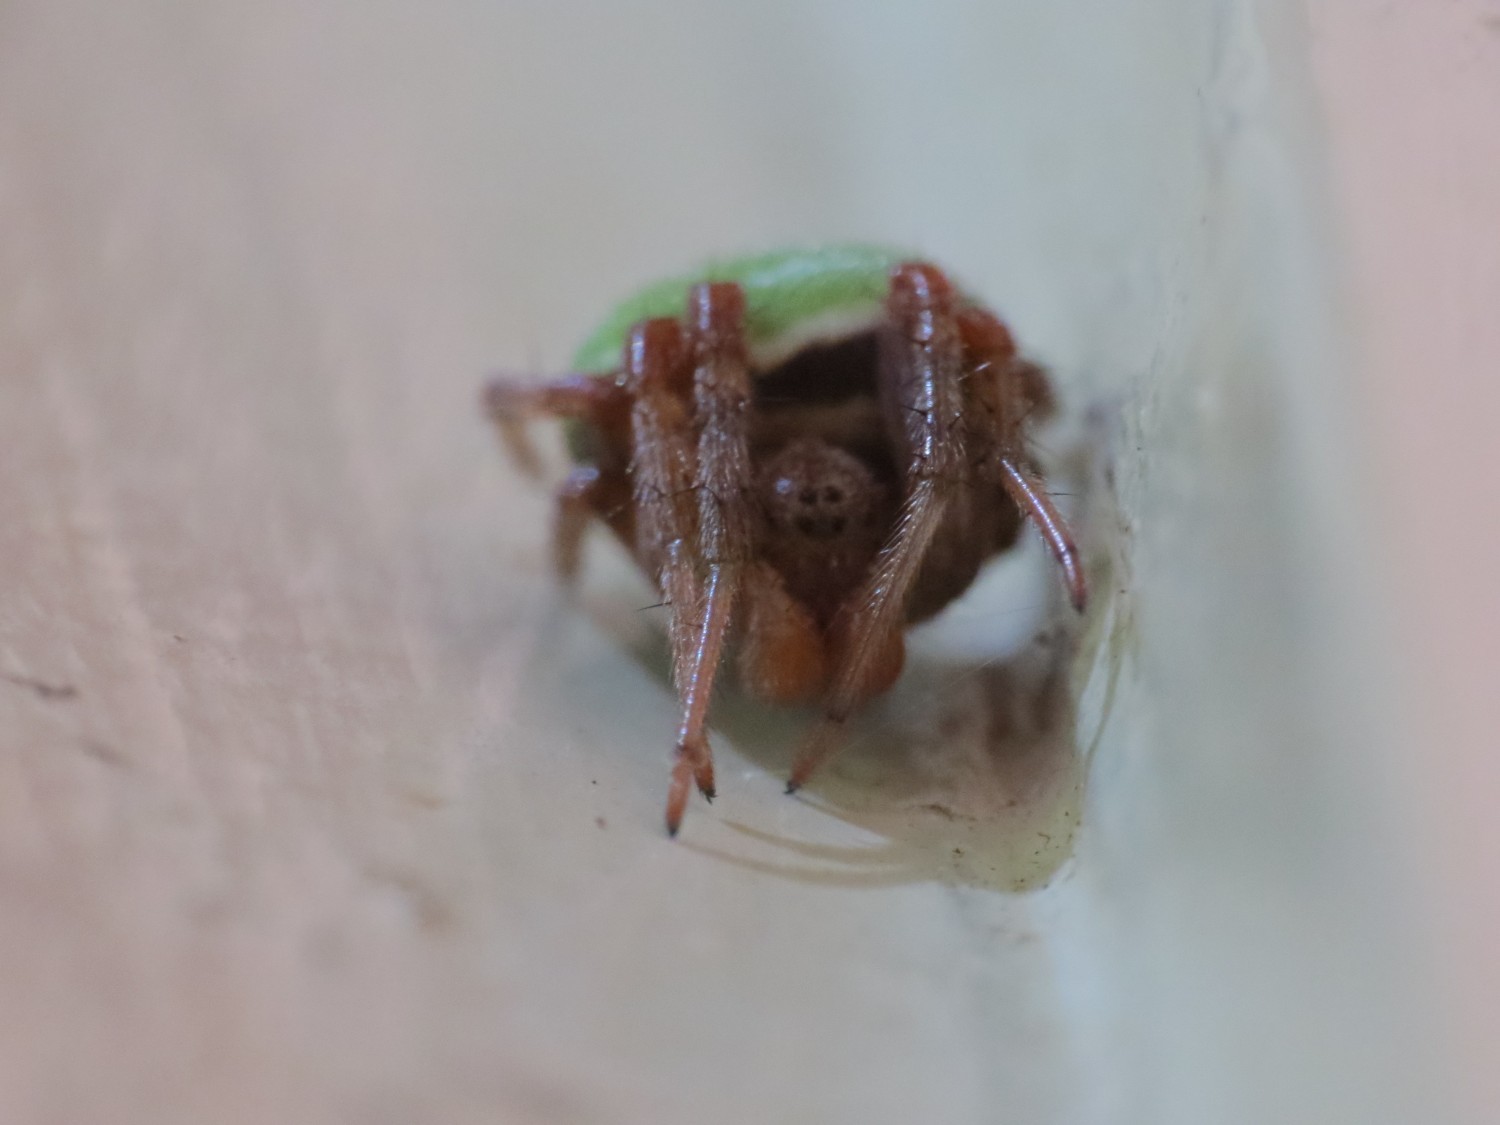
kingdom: Animalia
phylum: Arthropoda
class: Arachnida
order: Araneae
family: Araneidae
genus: Araneus
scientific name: Araneus lathyrinus
